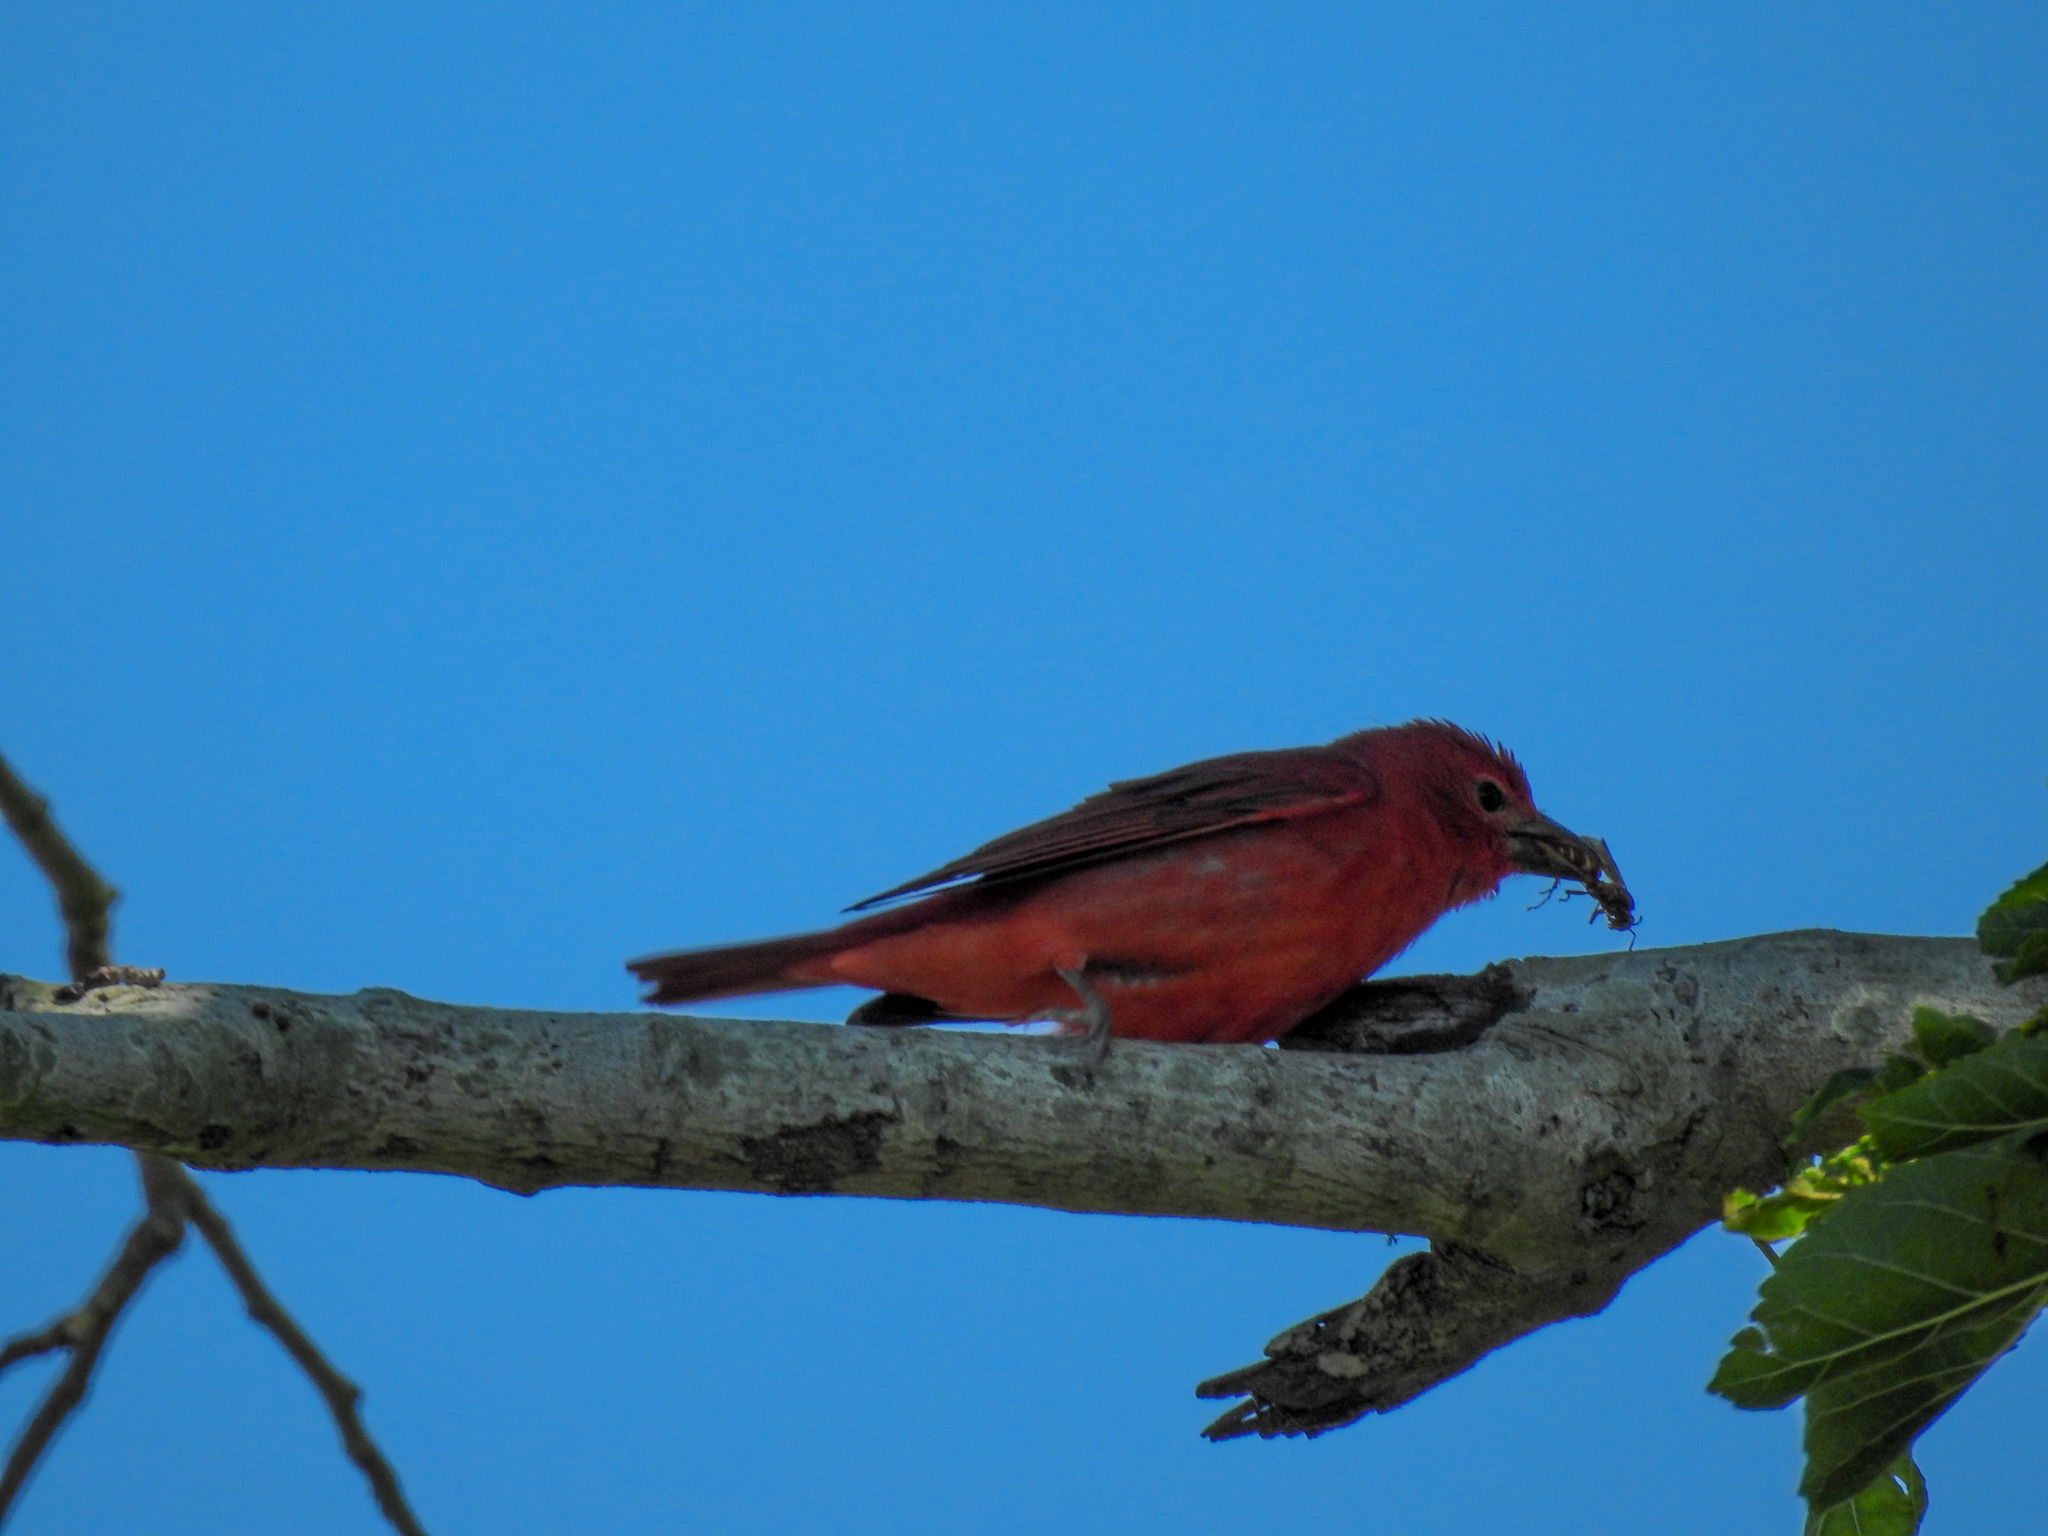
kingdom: Animalia
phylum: Chordata
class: Aves
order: Passeriformes
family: Cardinalidae
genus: Piranga
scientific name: Piranga rubra
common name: Summer tanager
